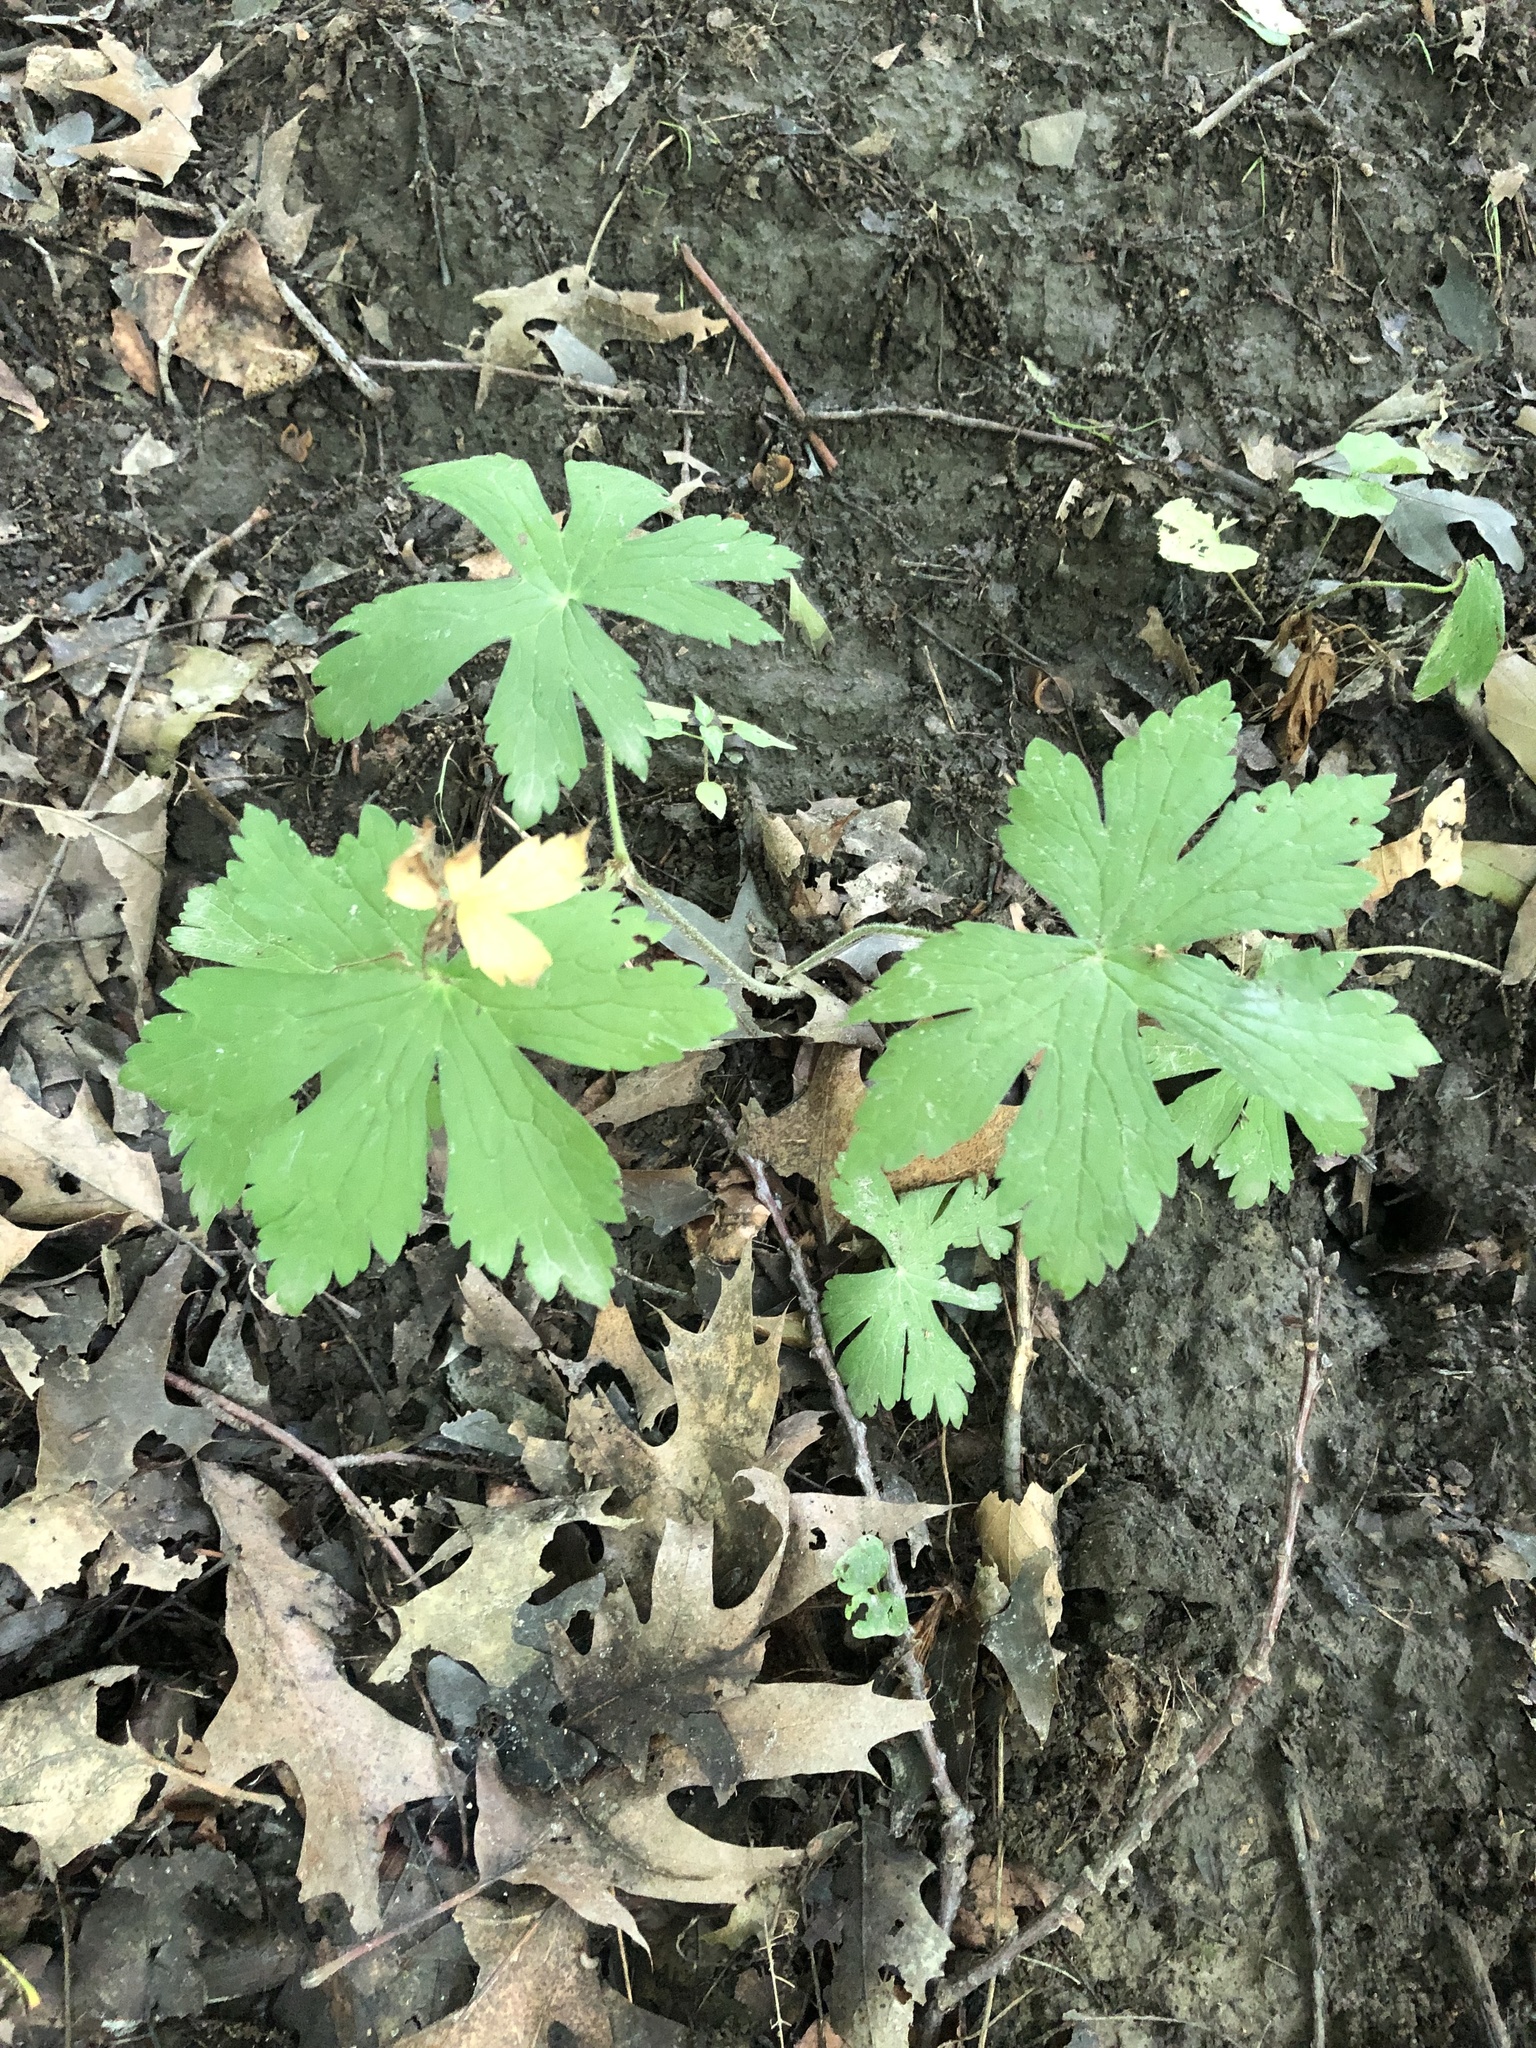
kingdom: Plantae
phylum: Tracheophyta
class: Magnoliopsida
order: Geraniales
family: Geraniaceae
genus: Geranium
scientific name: Geranium maculatum
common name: Spotted geranium
